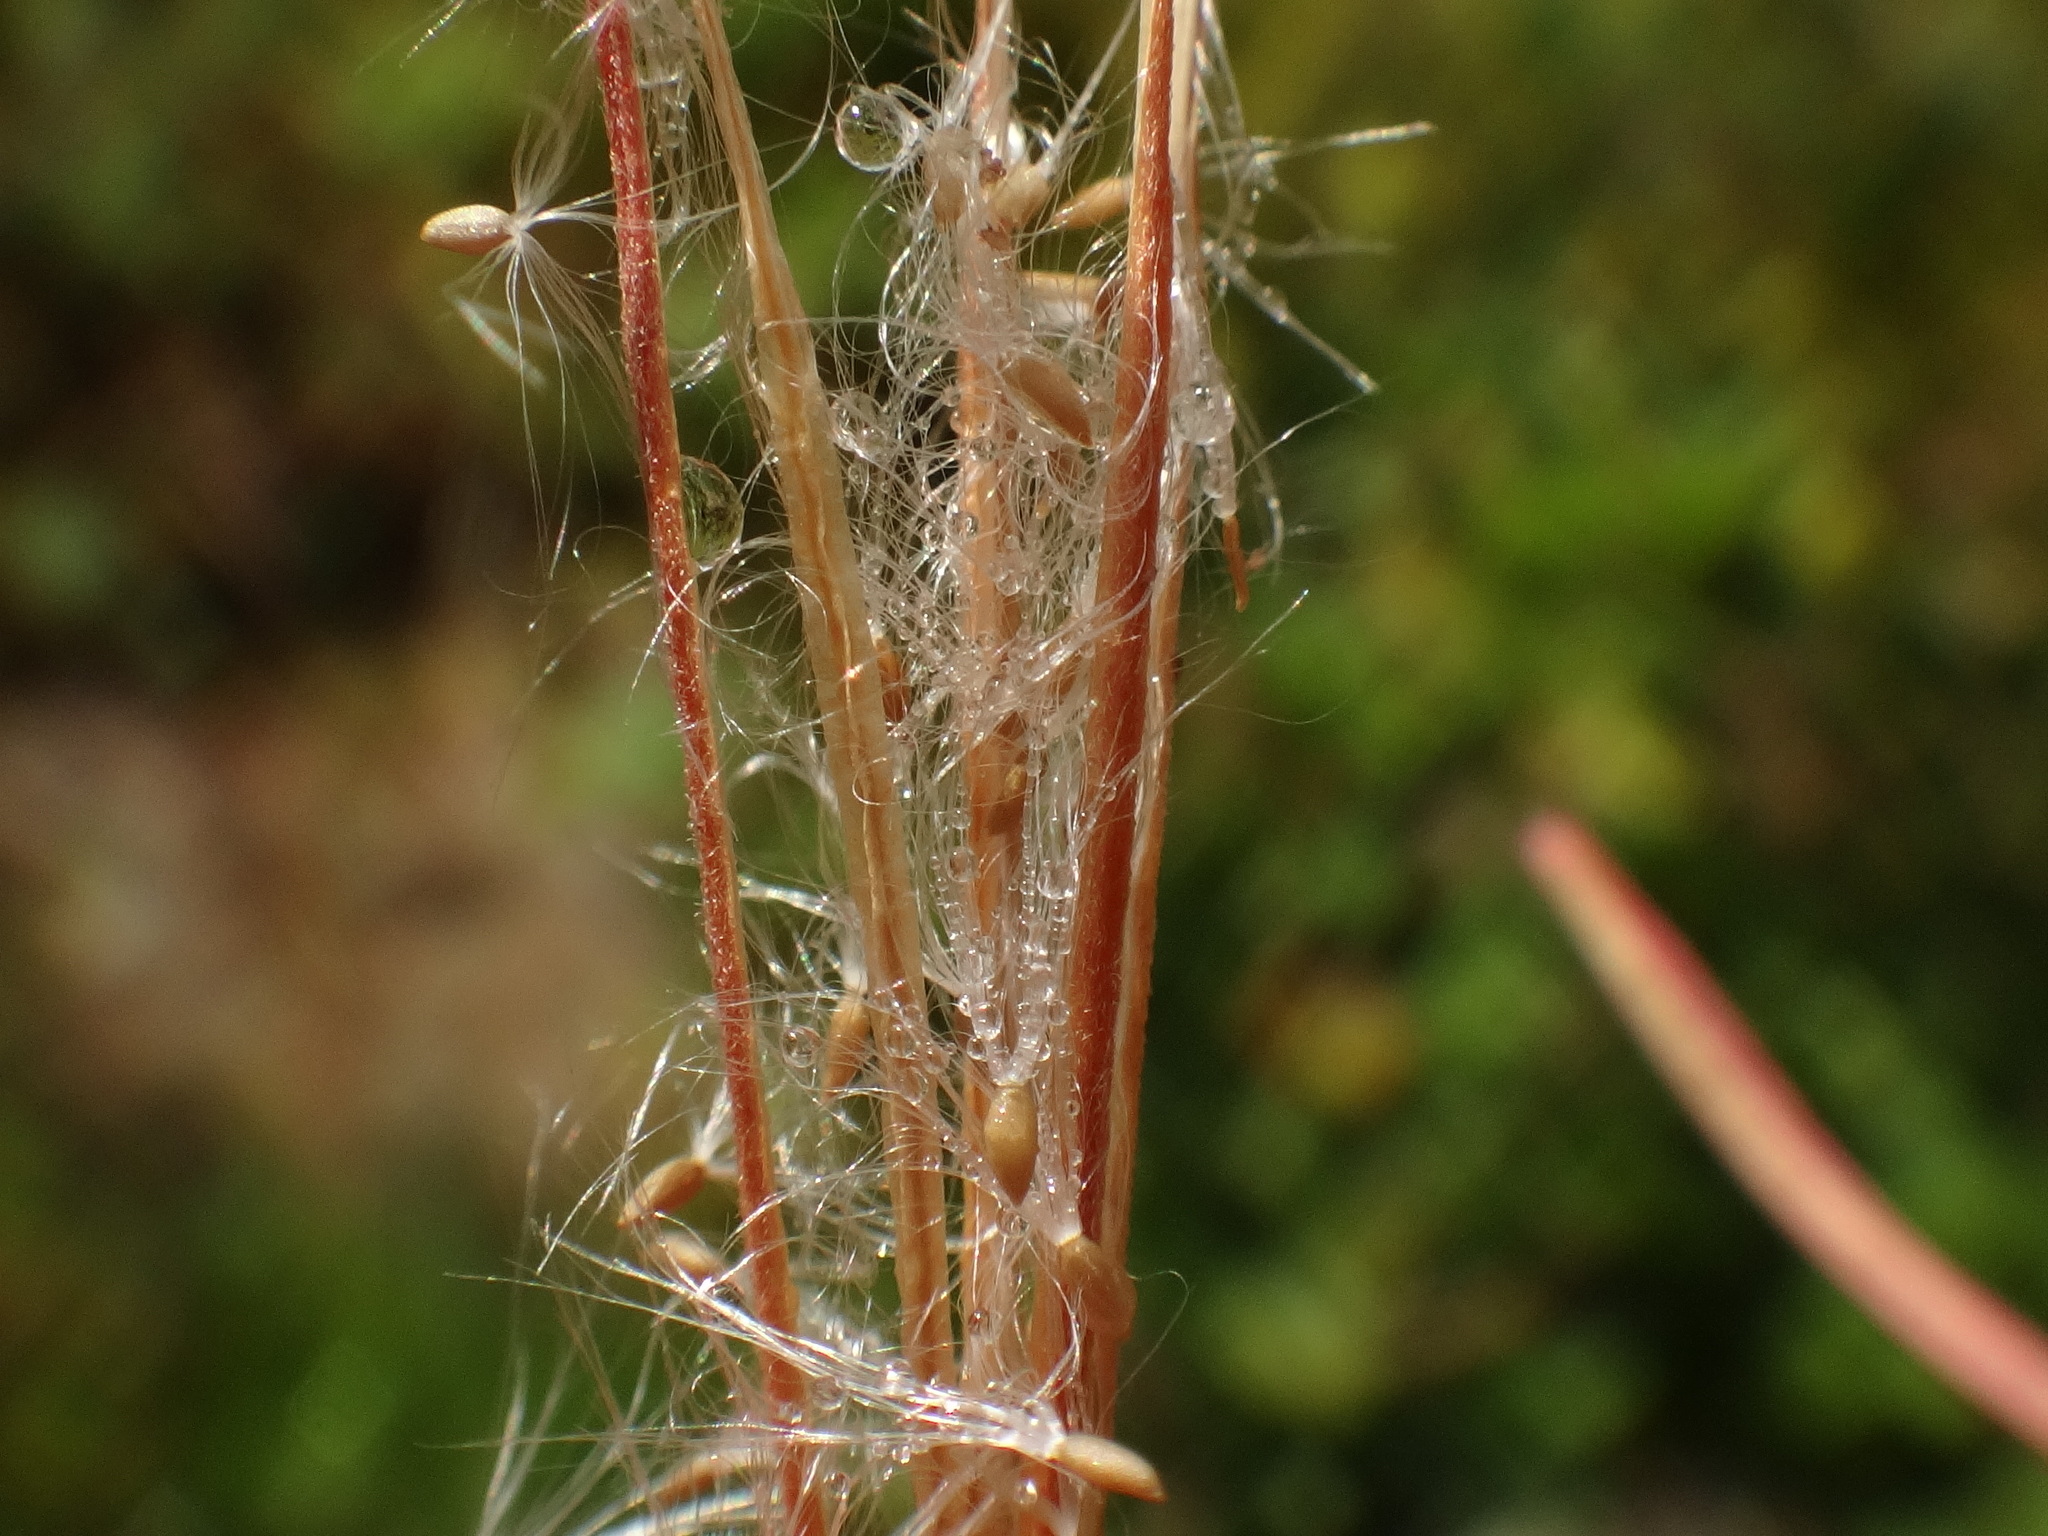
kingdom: Plantae
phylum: Tracheophyta
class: Magnoliopsida
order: Myrtales
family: Onagraceae
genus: Epilobium
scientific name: Epilobium palustre
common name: Marsh willowherb
